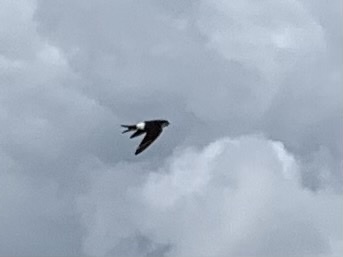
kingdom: Animalia
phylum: Chordata
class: Aves
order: Passeriformes
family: Hirundinidae
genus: Delichon
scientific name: Delichon urbicum
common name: Common house martin
